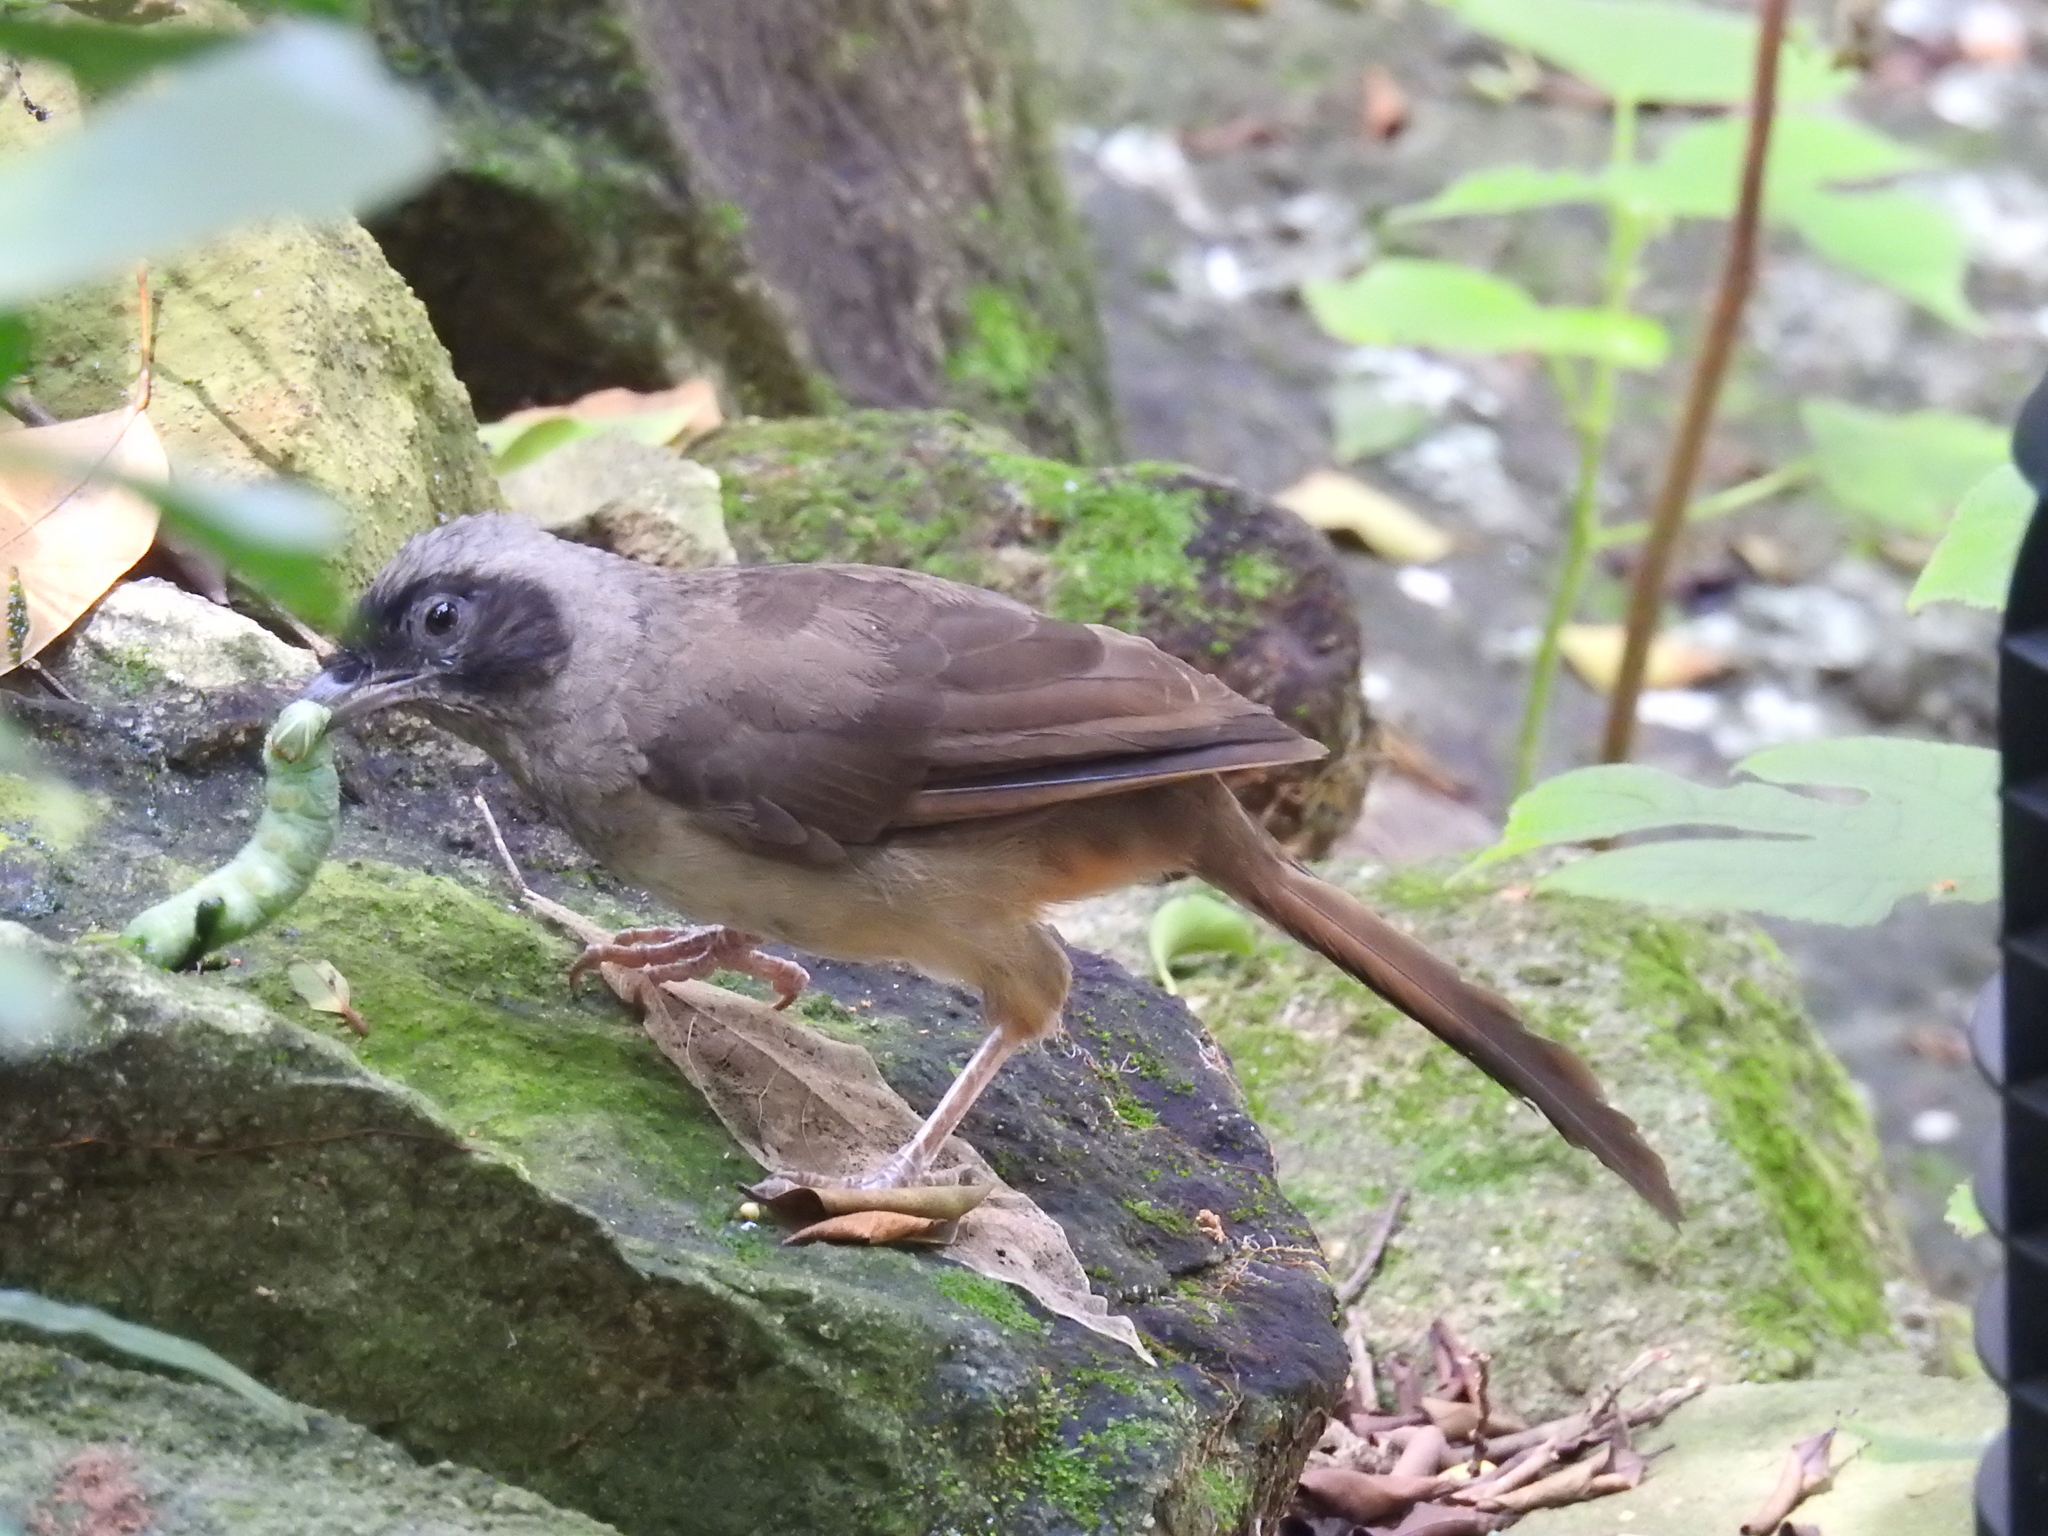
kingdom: Animalia
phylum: Chordata
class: Aves
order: Passeriformes
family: Leiothrichidae
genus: Garrulax
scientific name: Garrulax perspicillatus
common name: Masked laughingthrush
